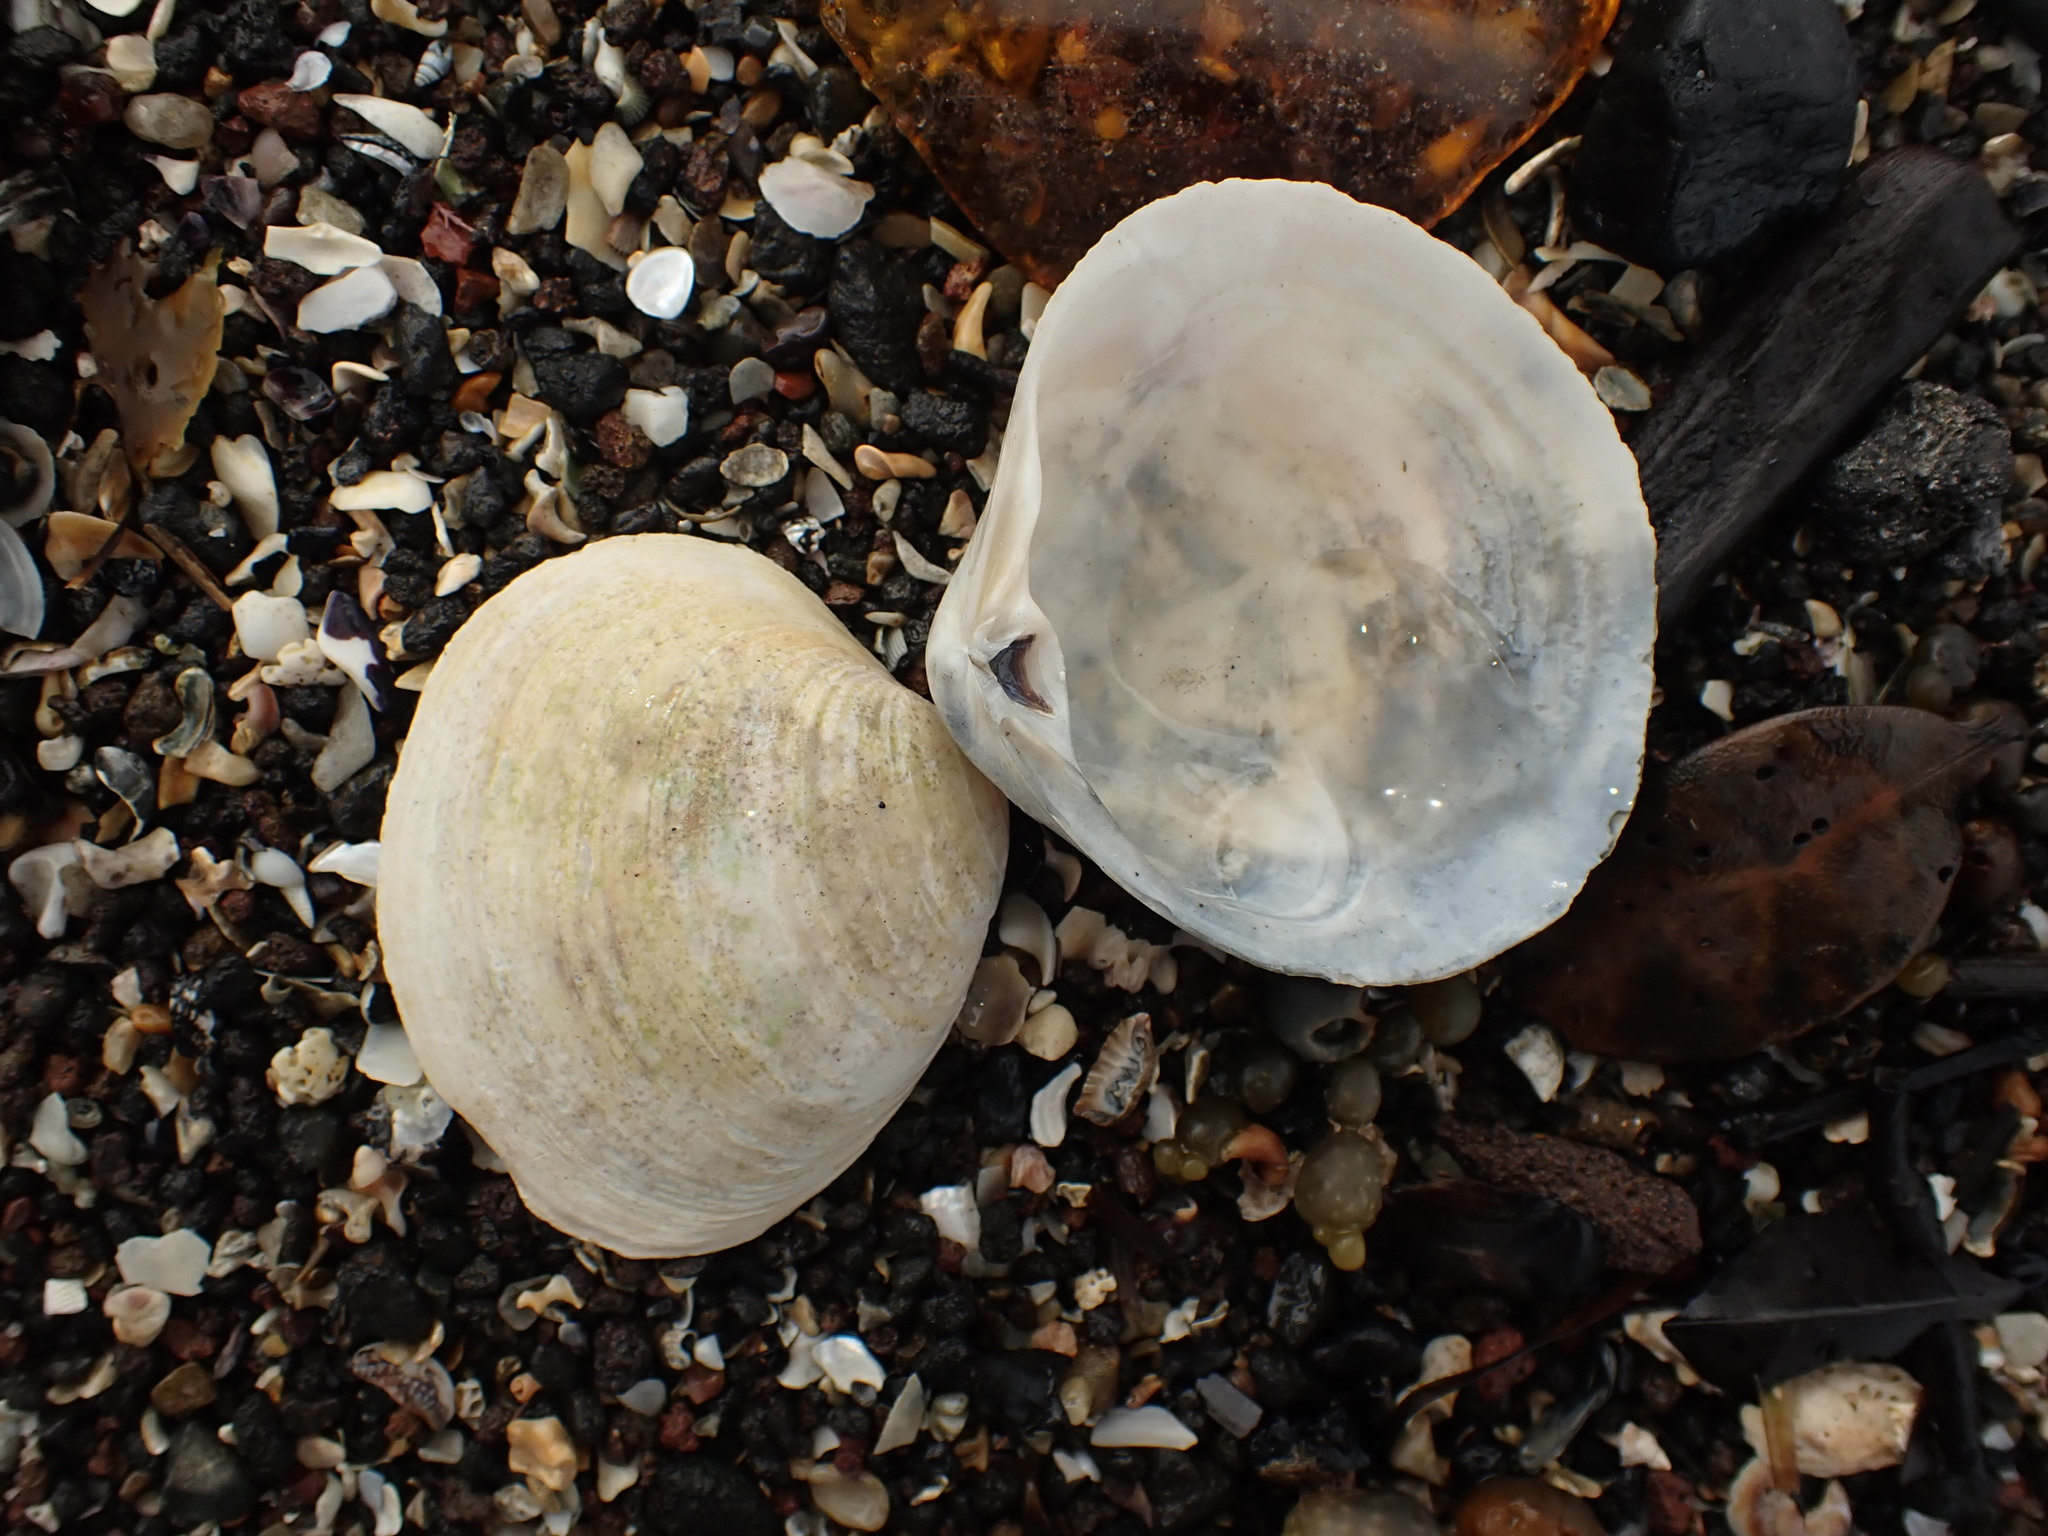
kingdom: Animalia
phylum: Mollusca
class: Bivalvia
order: Venerida
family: Mactridae
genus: Cyclomactra
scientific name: Cyclomactra ovata
